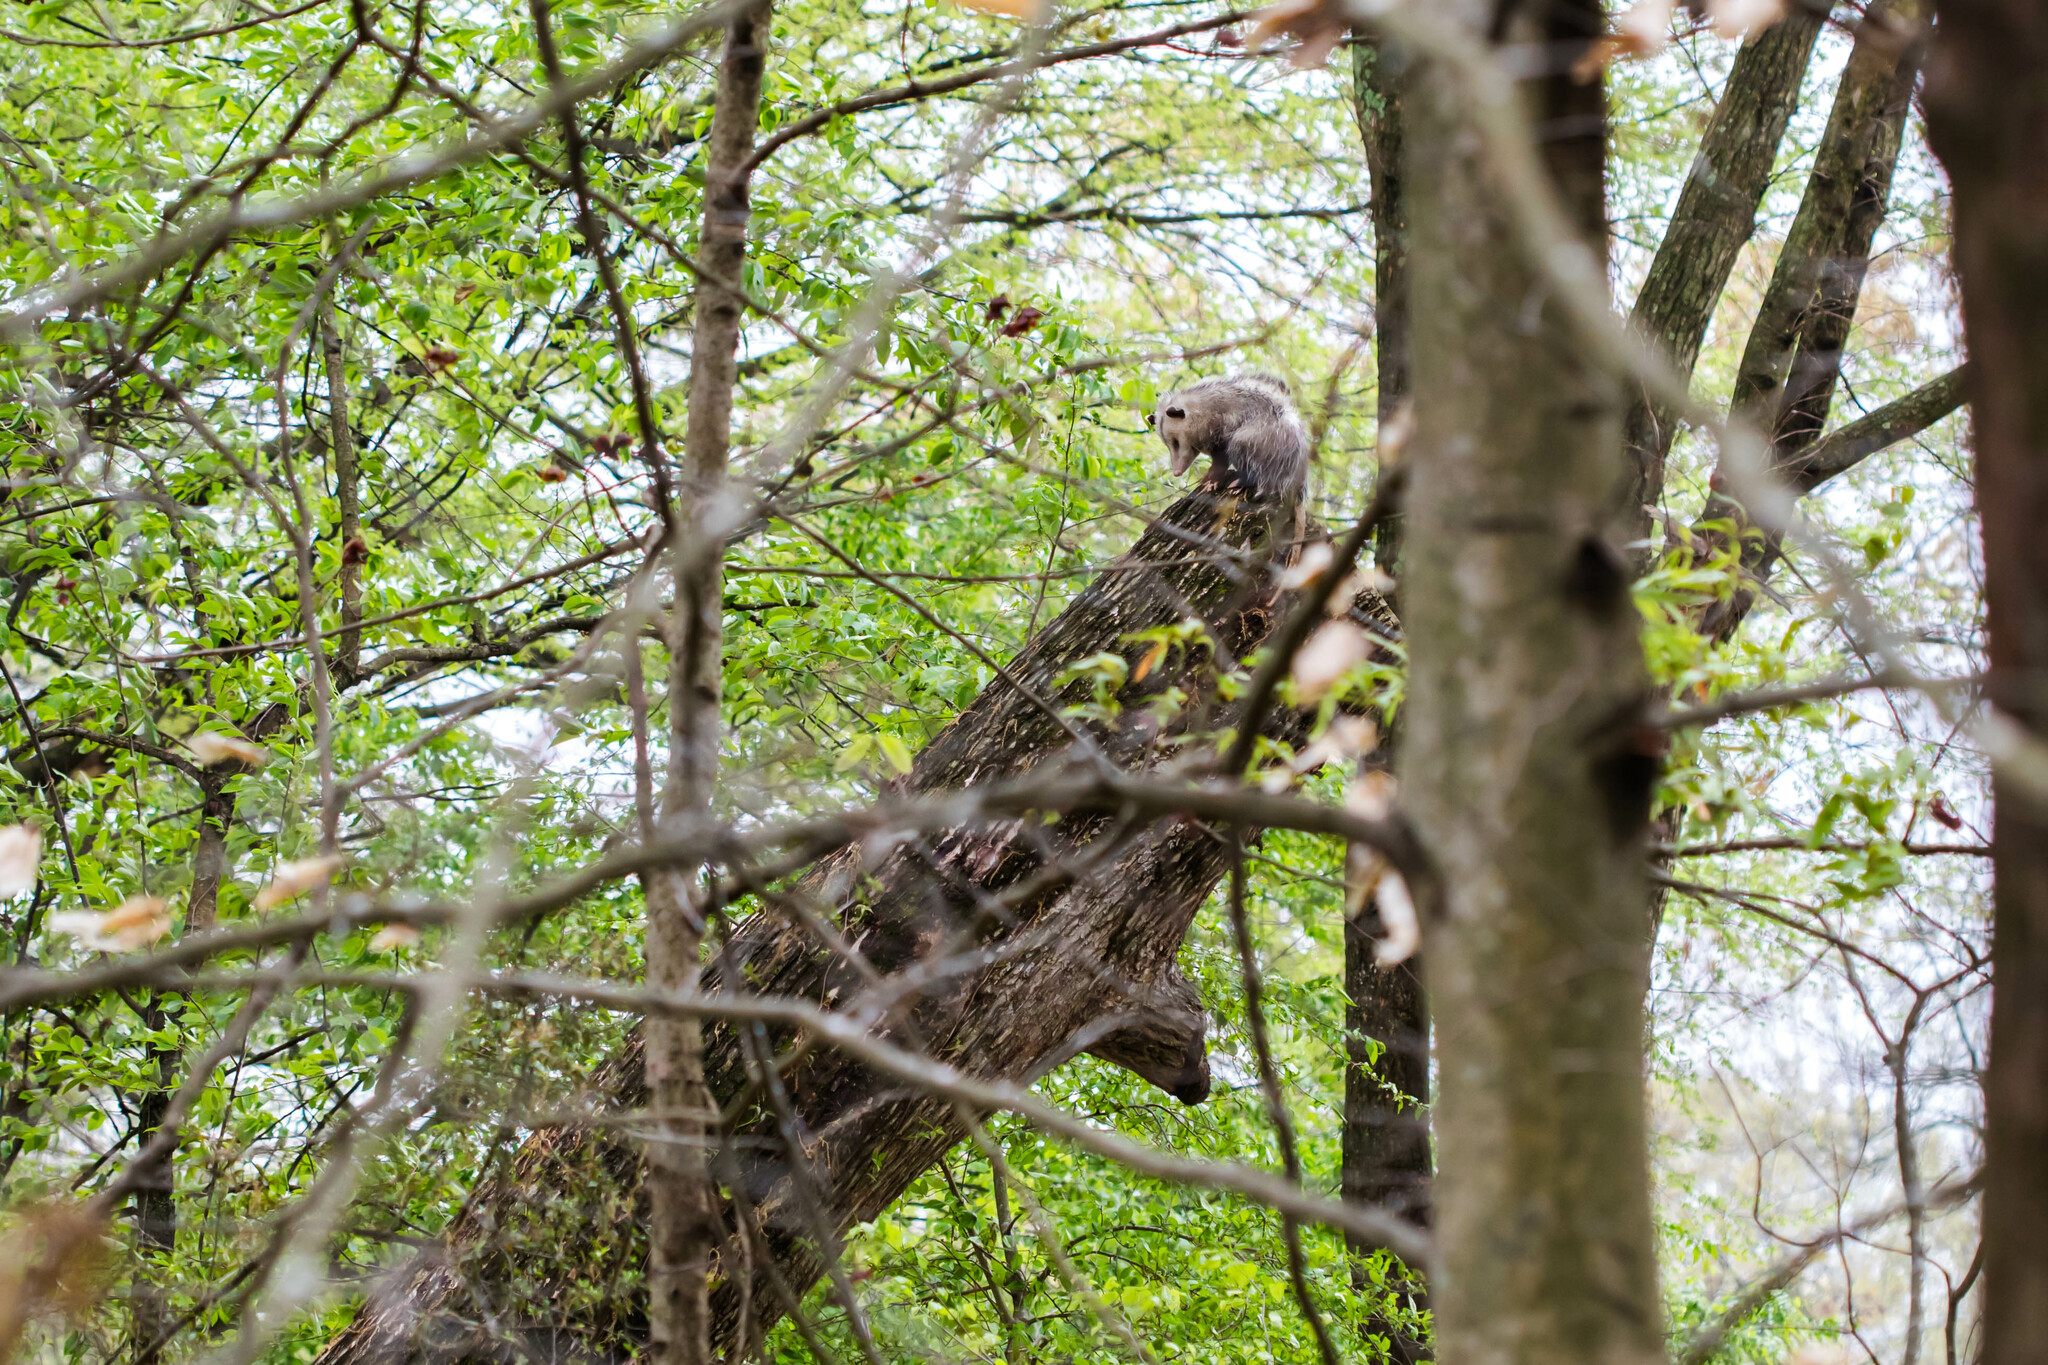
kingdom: Animalia
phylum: Chordata
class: Mammalia
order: Didelphimorphia
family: Didelphidae
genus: Didelphis
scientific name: Didelphis virginiana
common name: Virginia opossum
